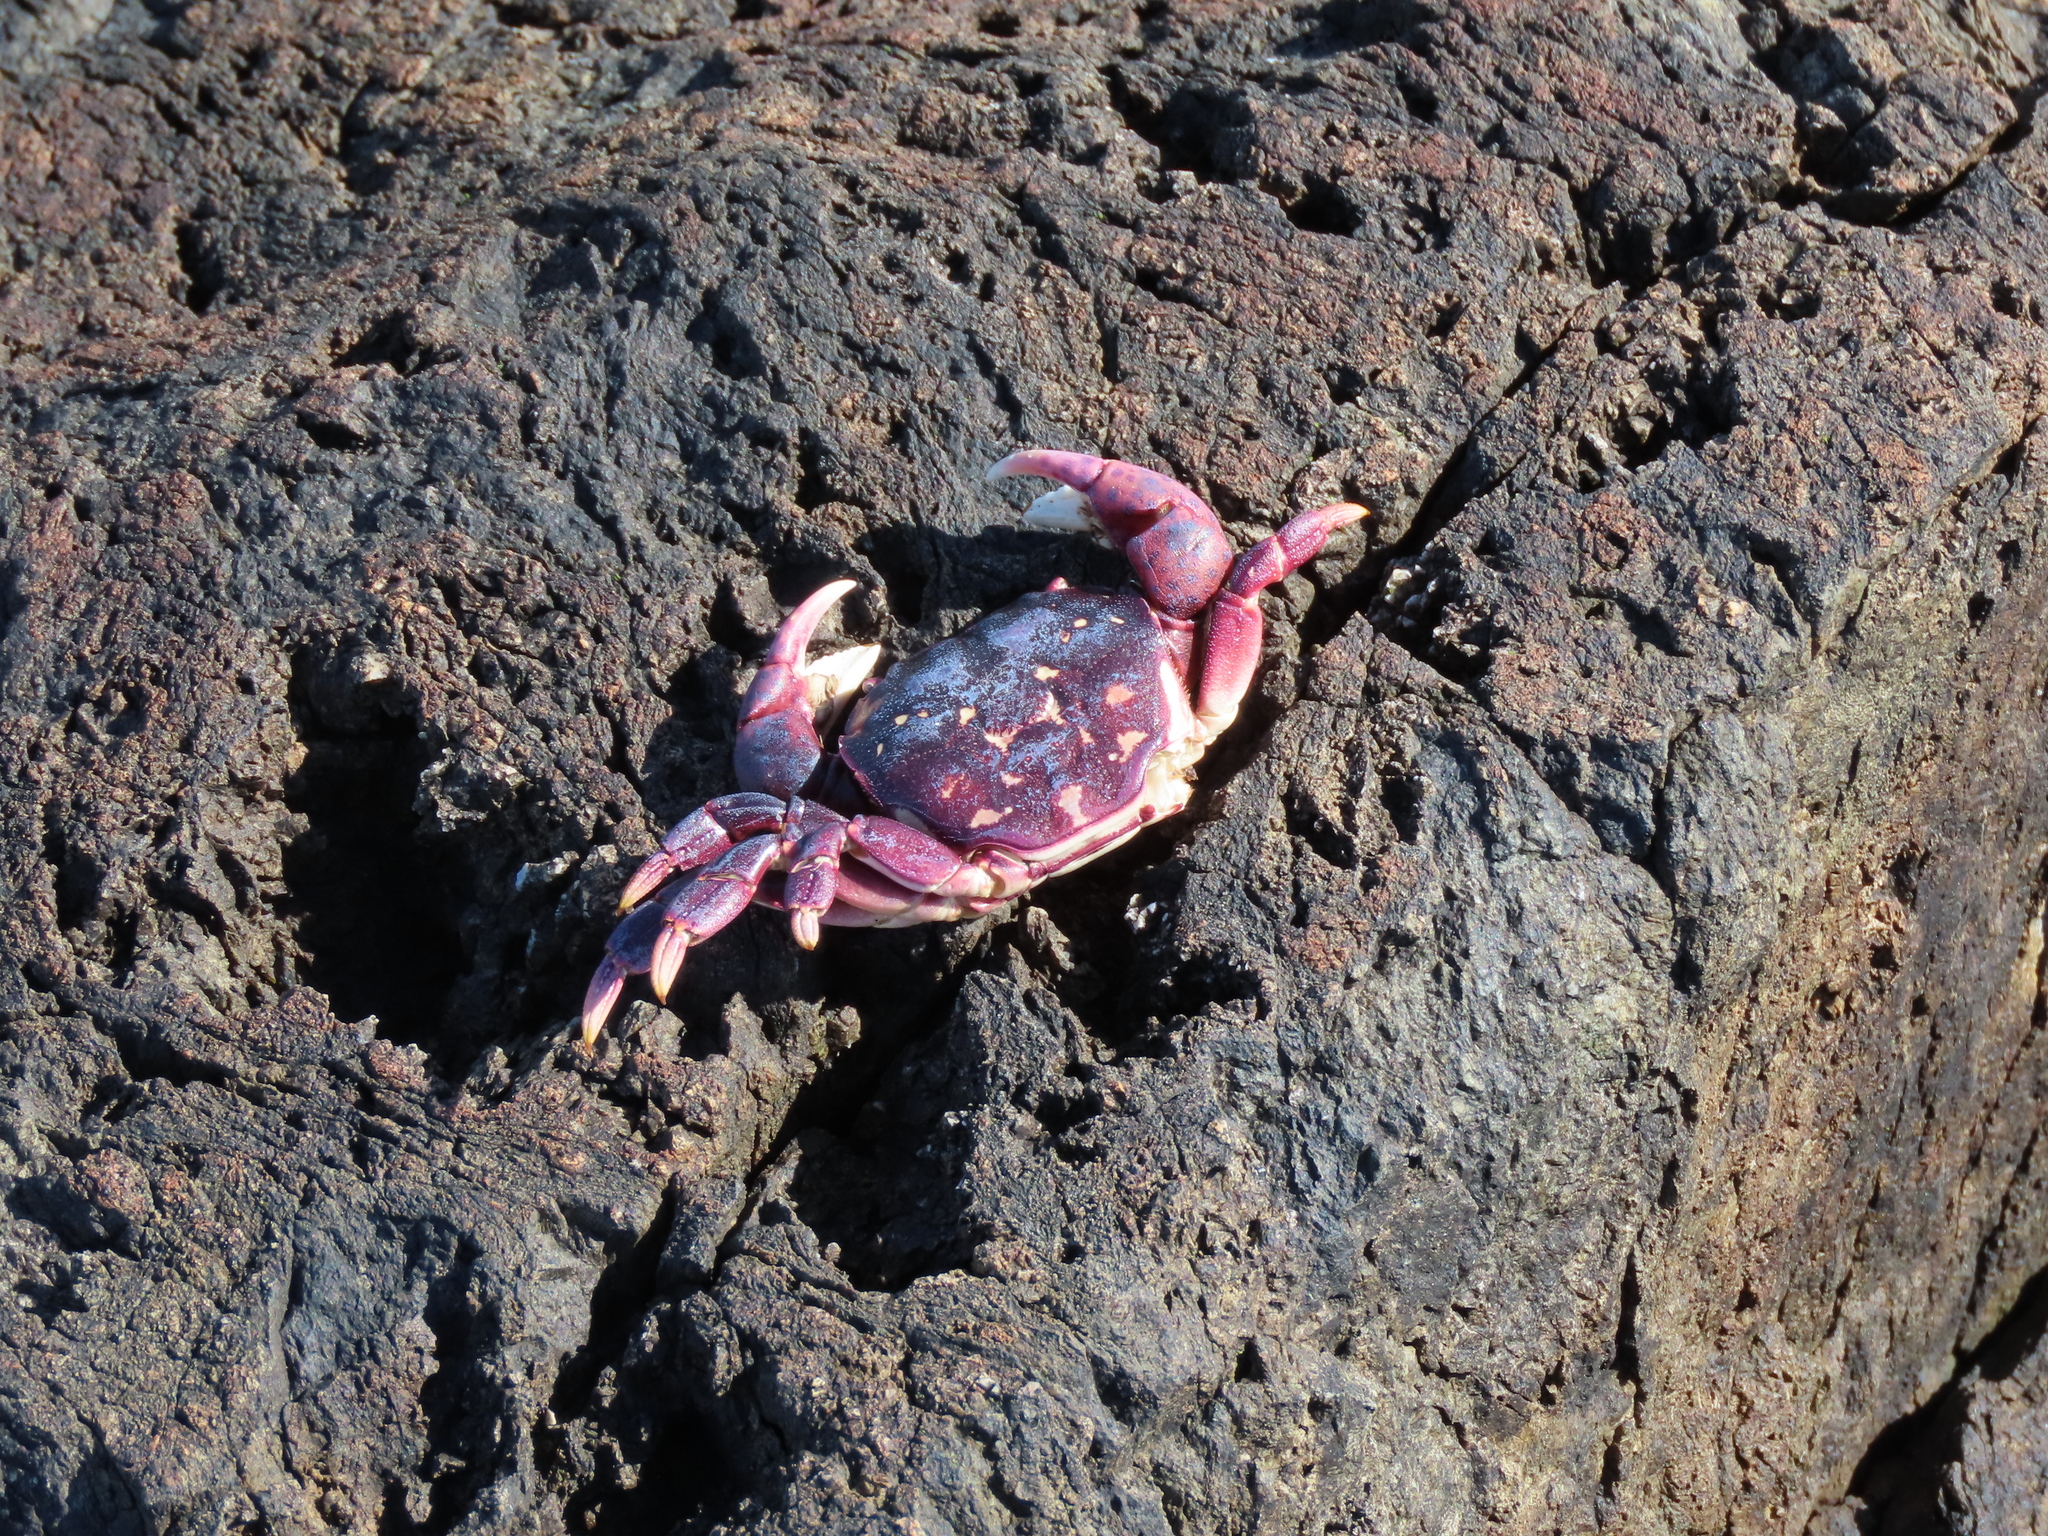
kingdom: Animalia
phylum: Arthropoda
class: Malacostraca
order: Decapoda
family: Varunidae
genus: Hemigrapsus
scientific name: Hemigrapsus nudus
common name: Purple shore crab
